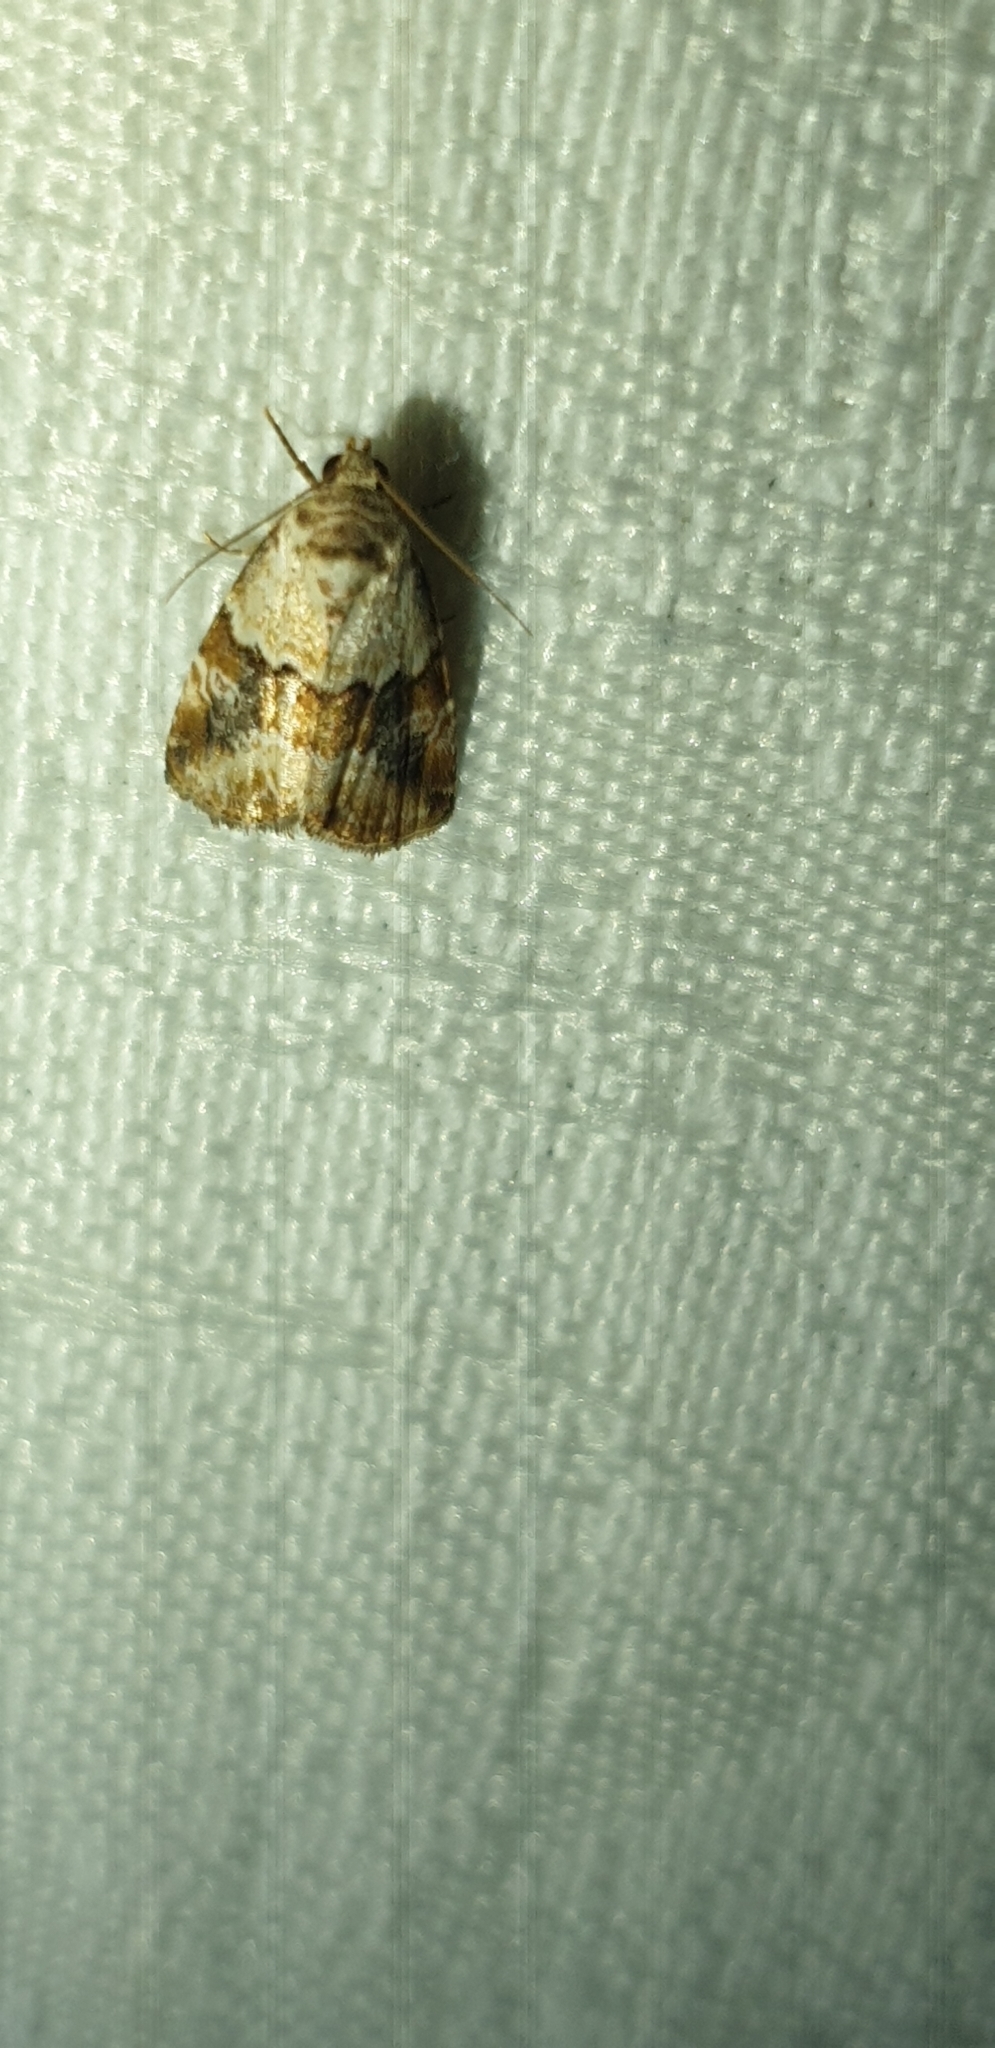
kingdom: Animalia
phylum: Arthropoda
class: Insecta
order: Lepidoptera
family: Noctuidae
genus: Maliattha
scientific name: Maliattha amorpha
